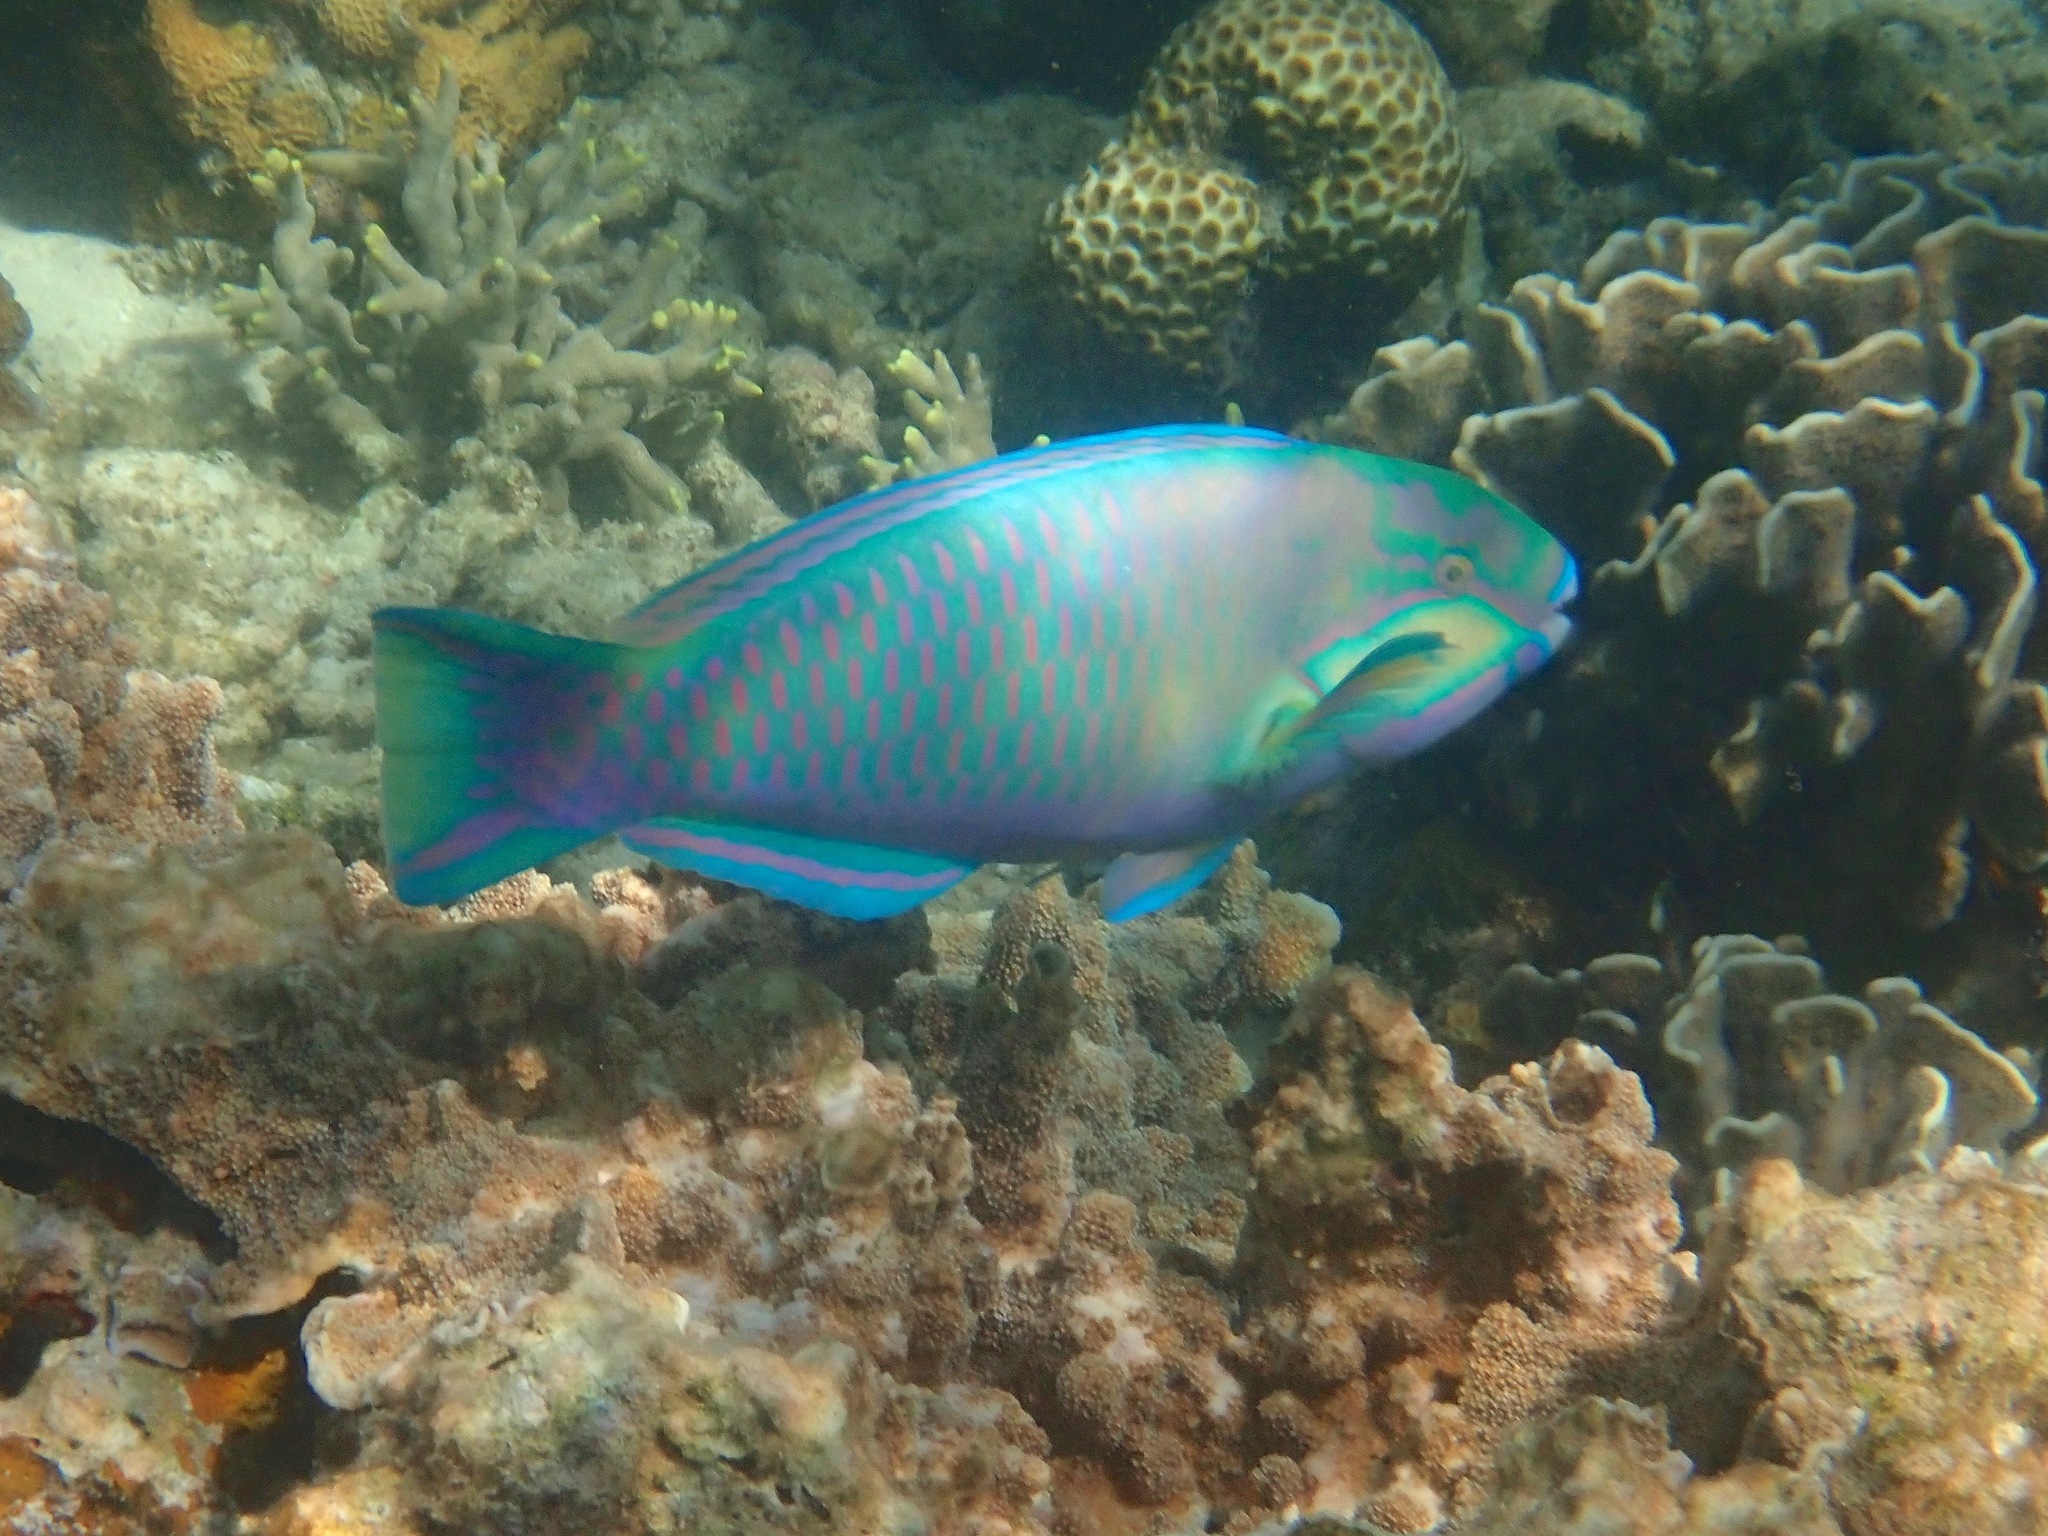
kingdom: Animalia
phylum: Chordata
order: Perciformes
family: Scaridae
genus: Chlorurus
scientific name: Chlorurus bleekeri
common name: Bleeker's parrotfish
